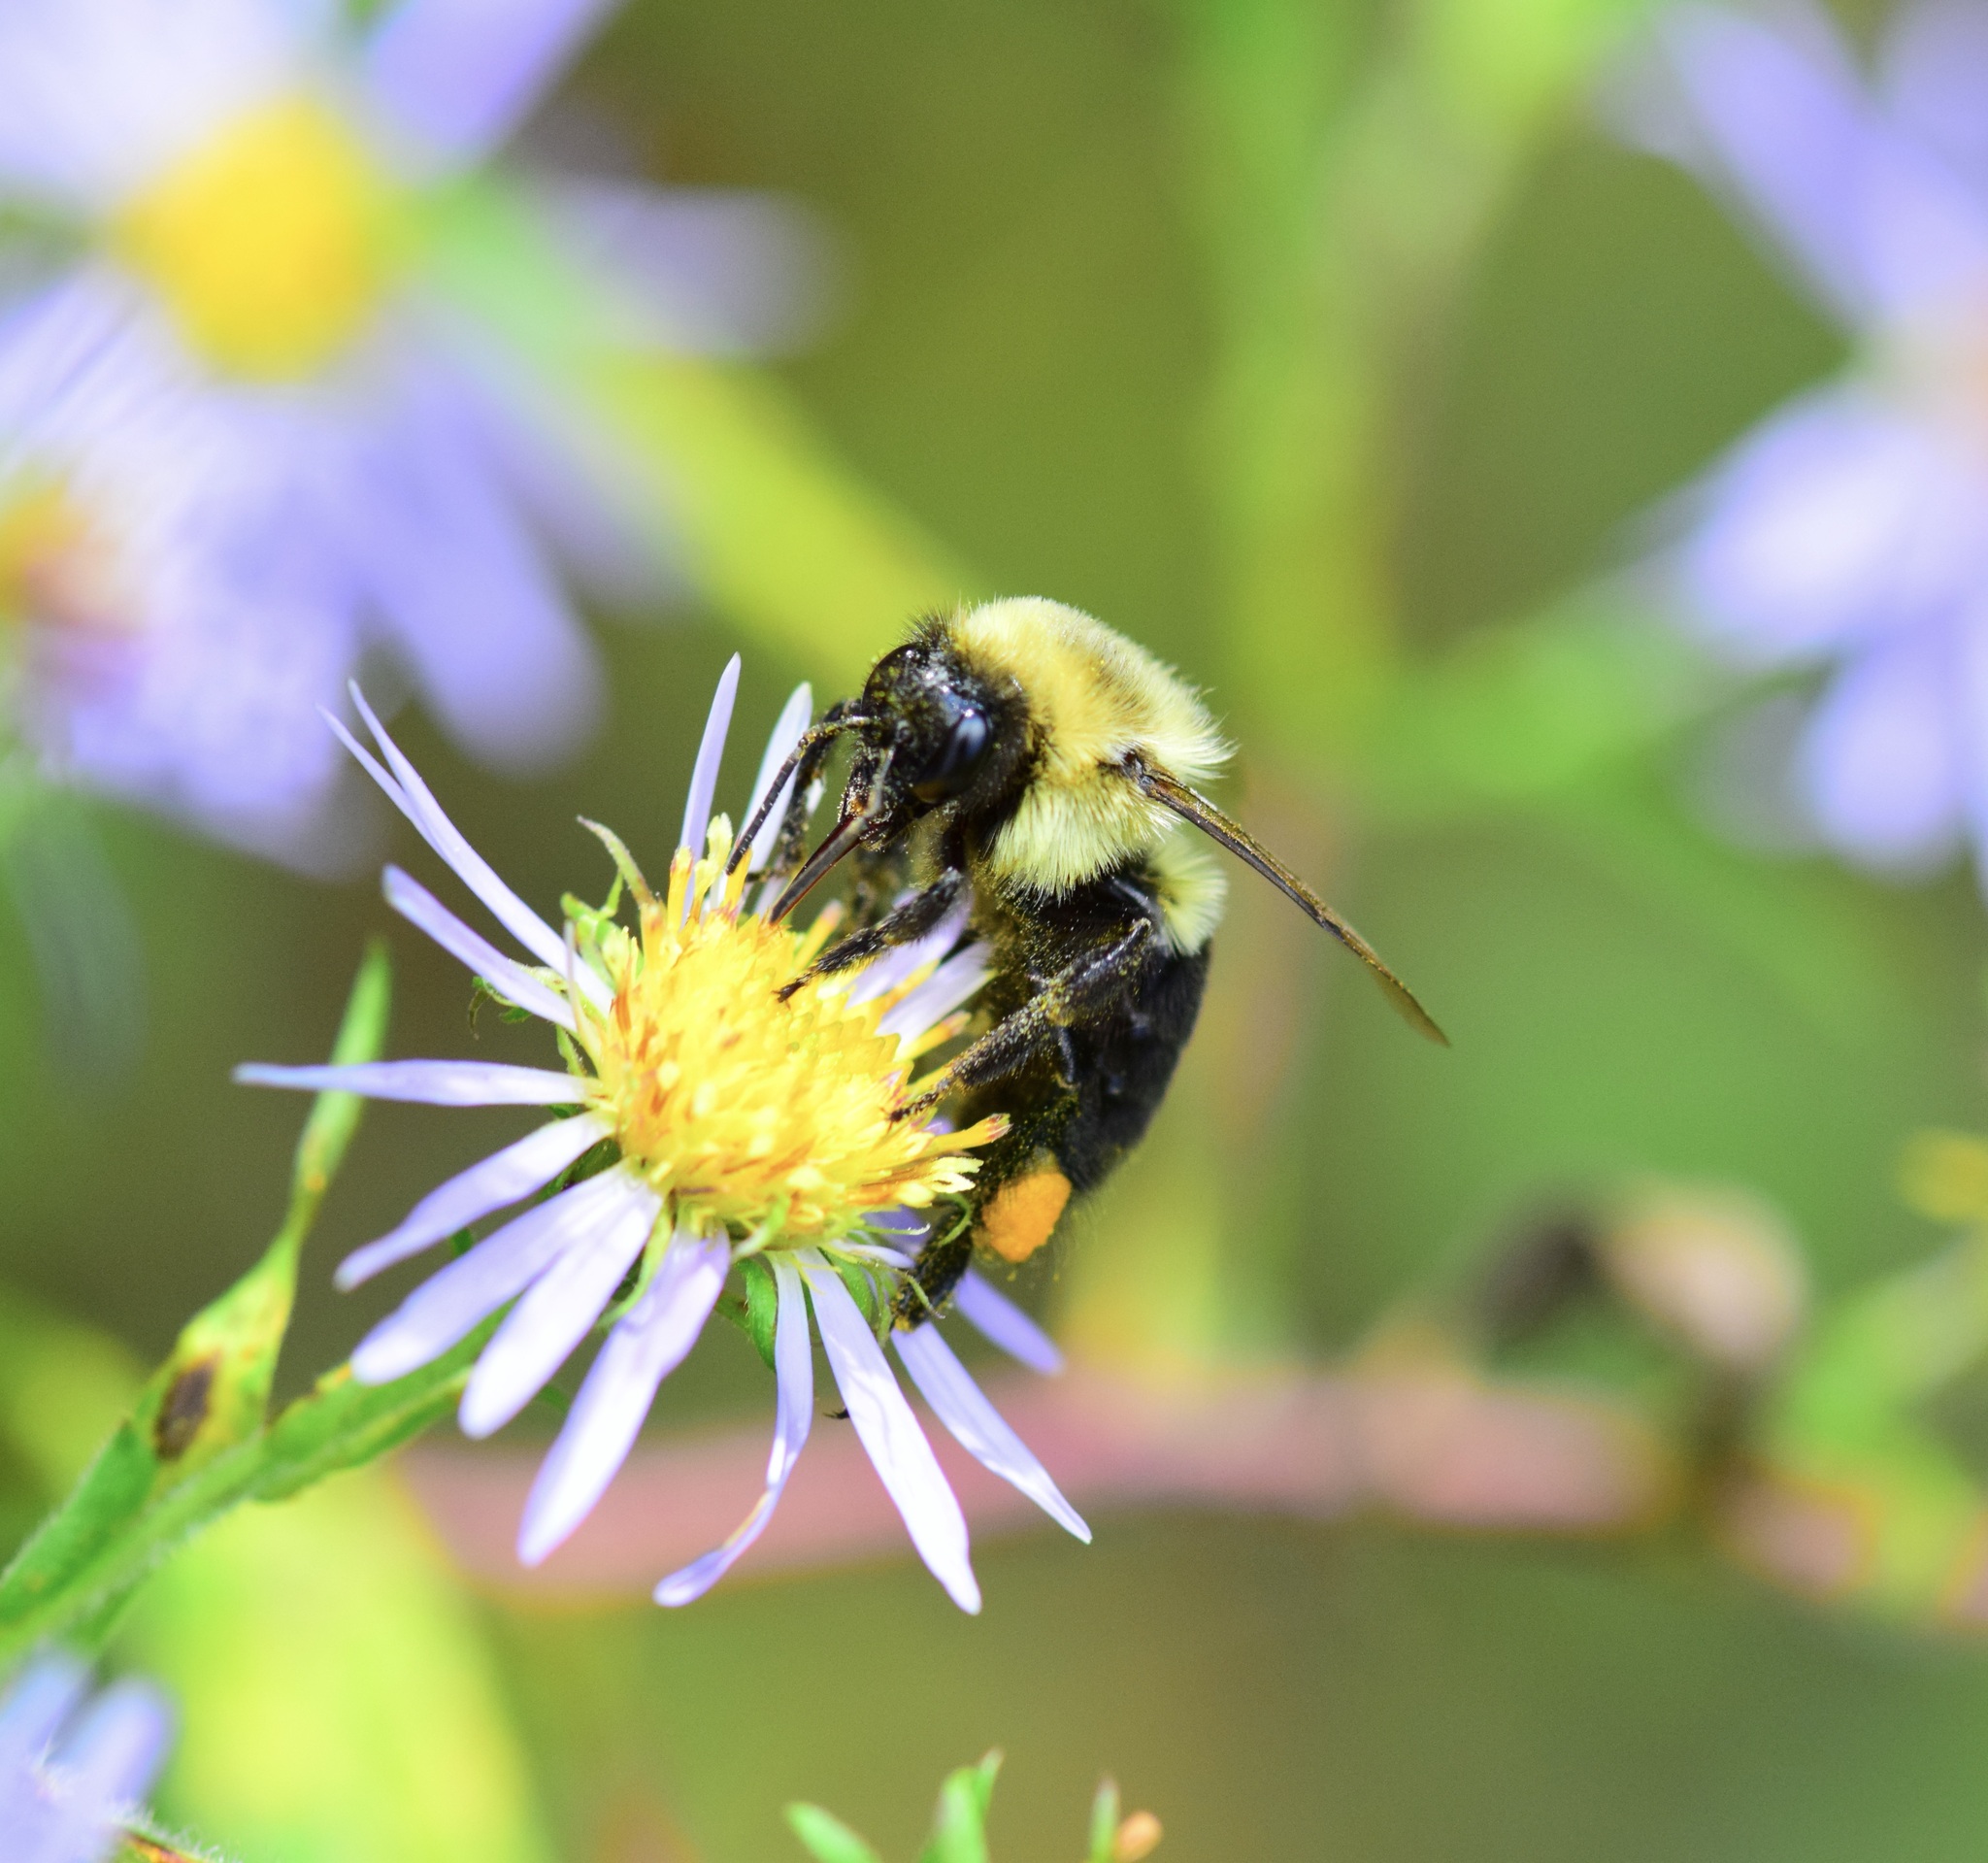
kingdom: Animalia
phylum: Arthropoda
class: Insecta
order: Hymenoptera
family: Apidae
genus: Bombus
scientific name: Bombus impatiens
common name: Common eastern bumble bee
